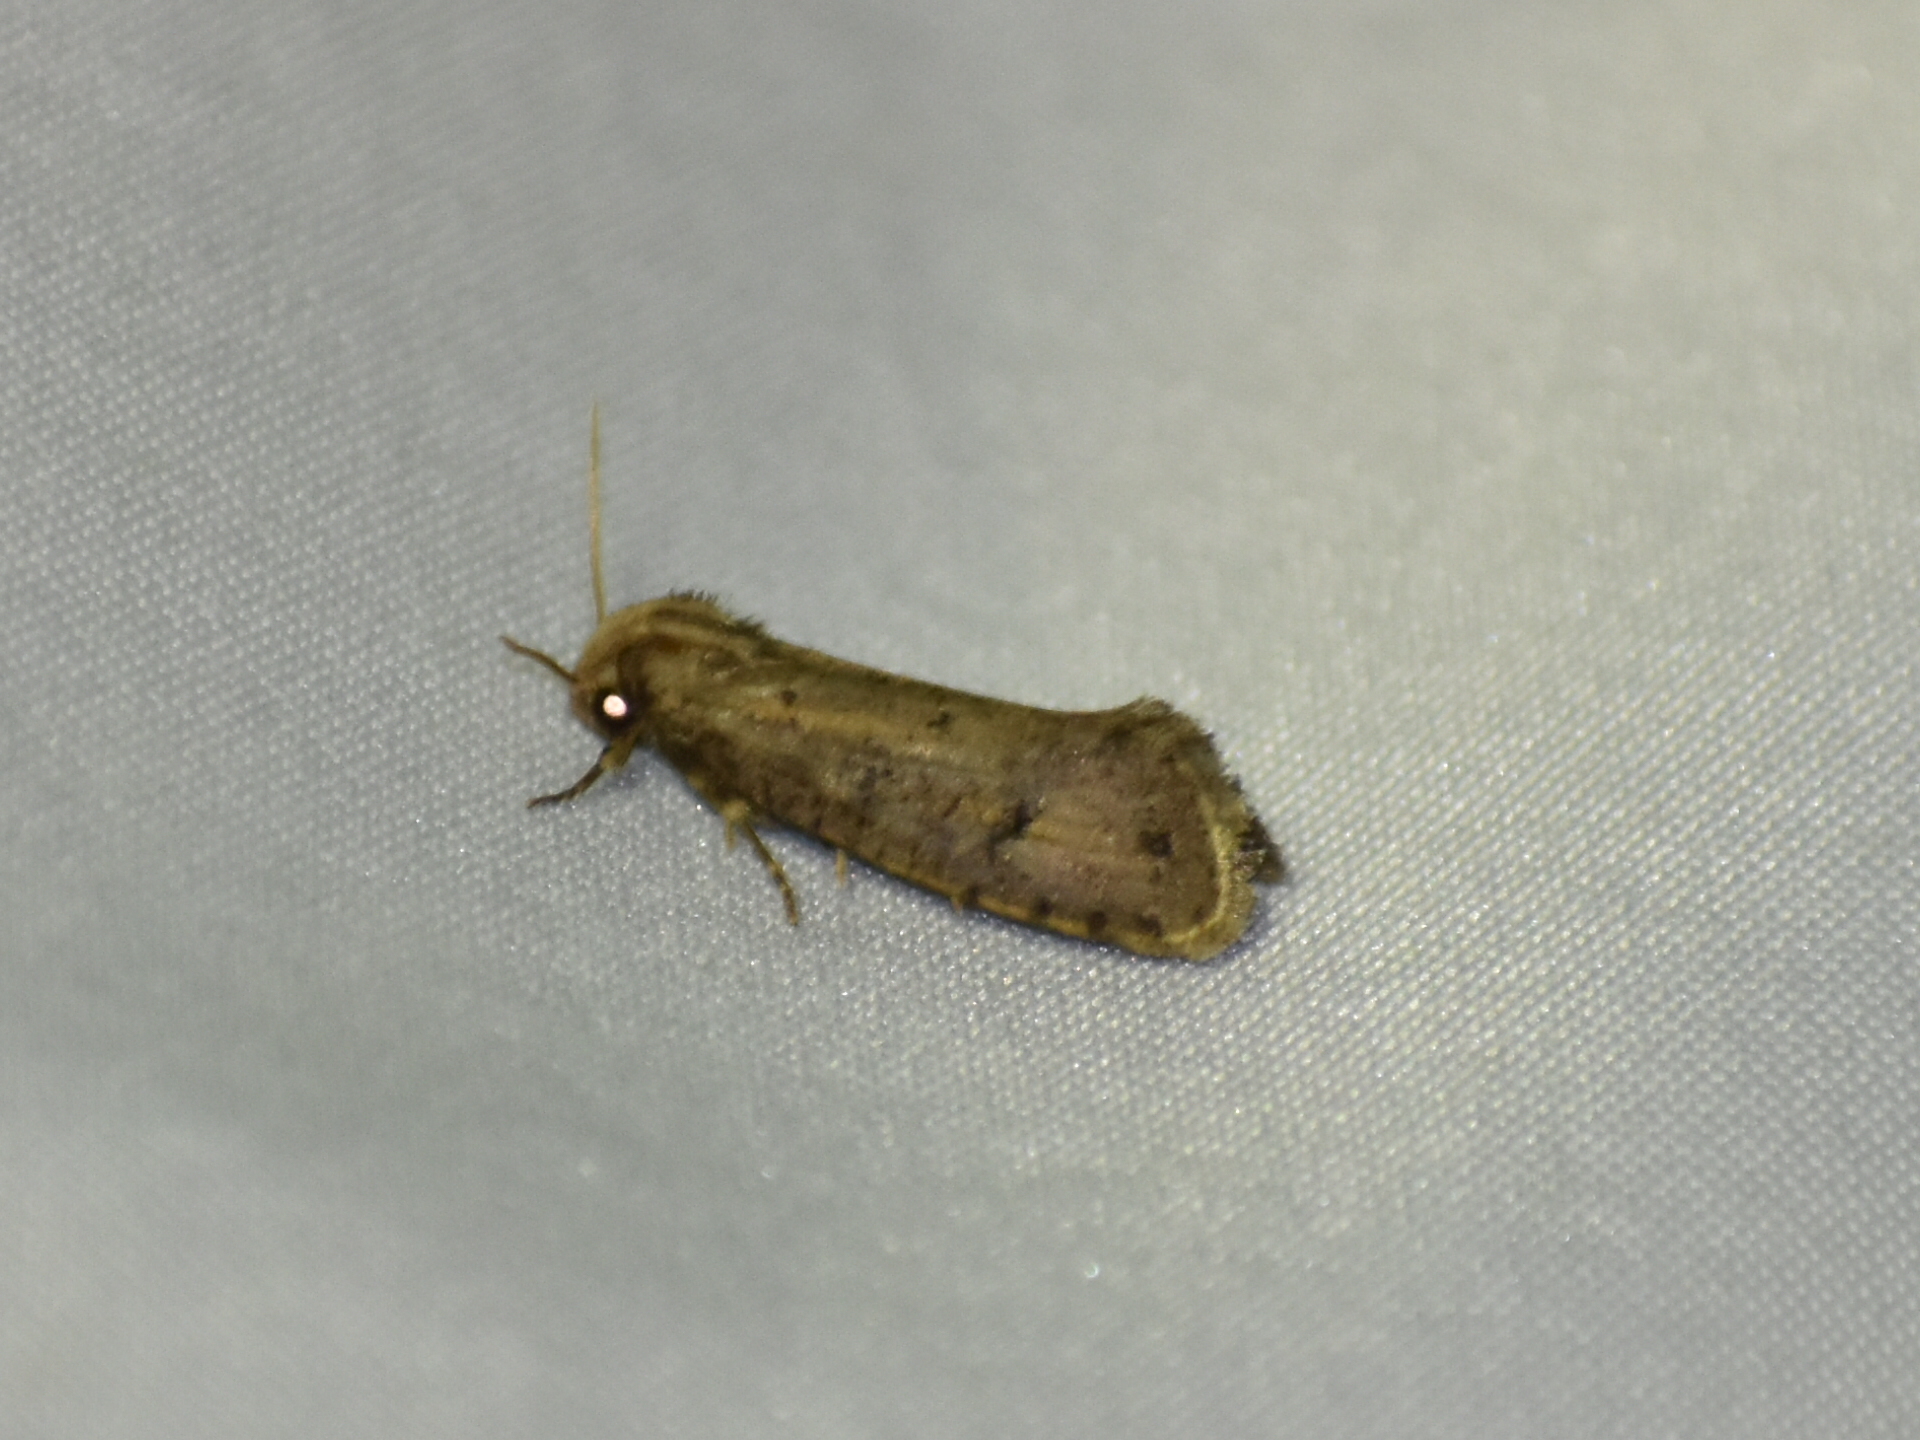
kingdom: Animalia
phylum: Arthropoda
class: Insecta
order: Lepidoptera
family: Tineidae
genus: Acrolophus
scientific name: Acrolophus popeanella
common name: Clemens' grass tubeworm moth
